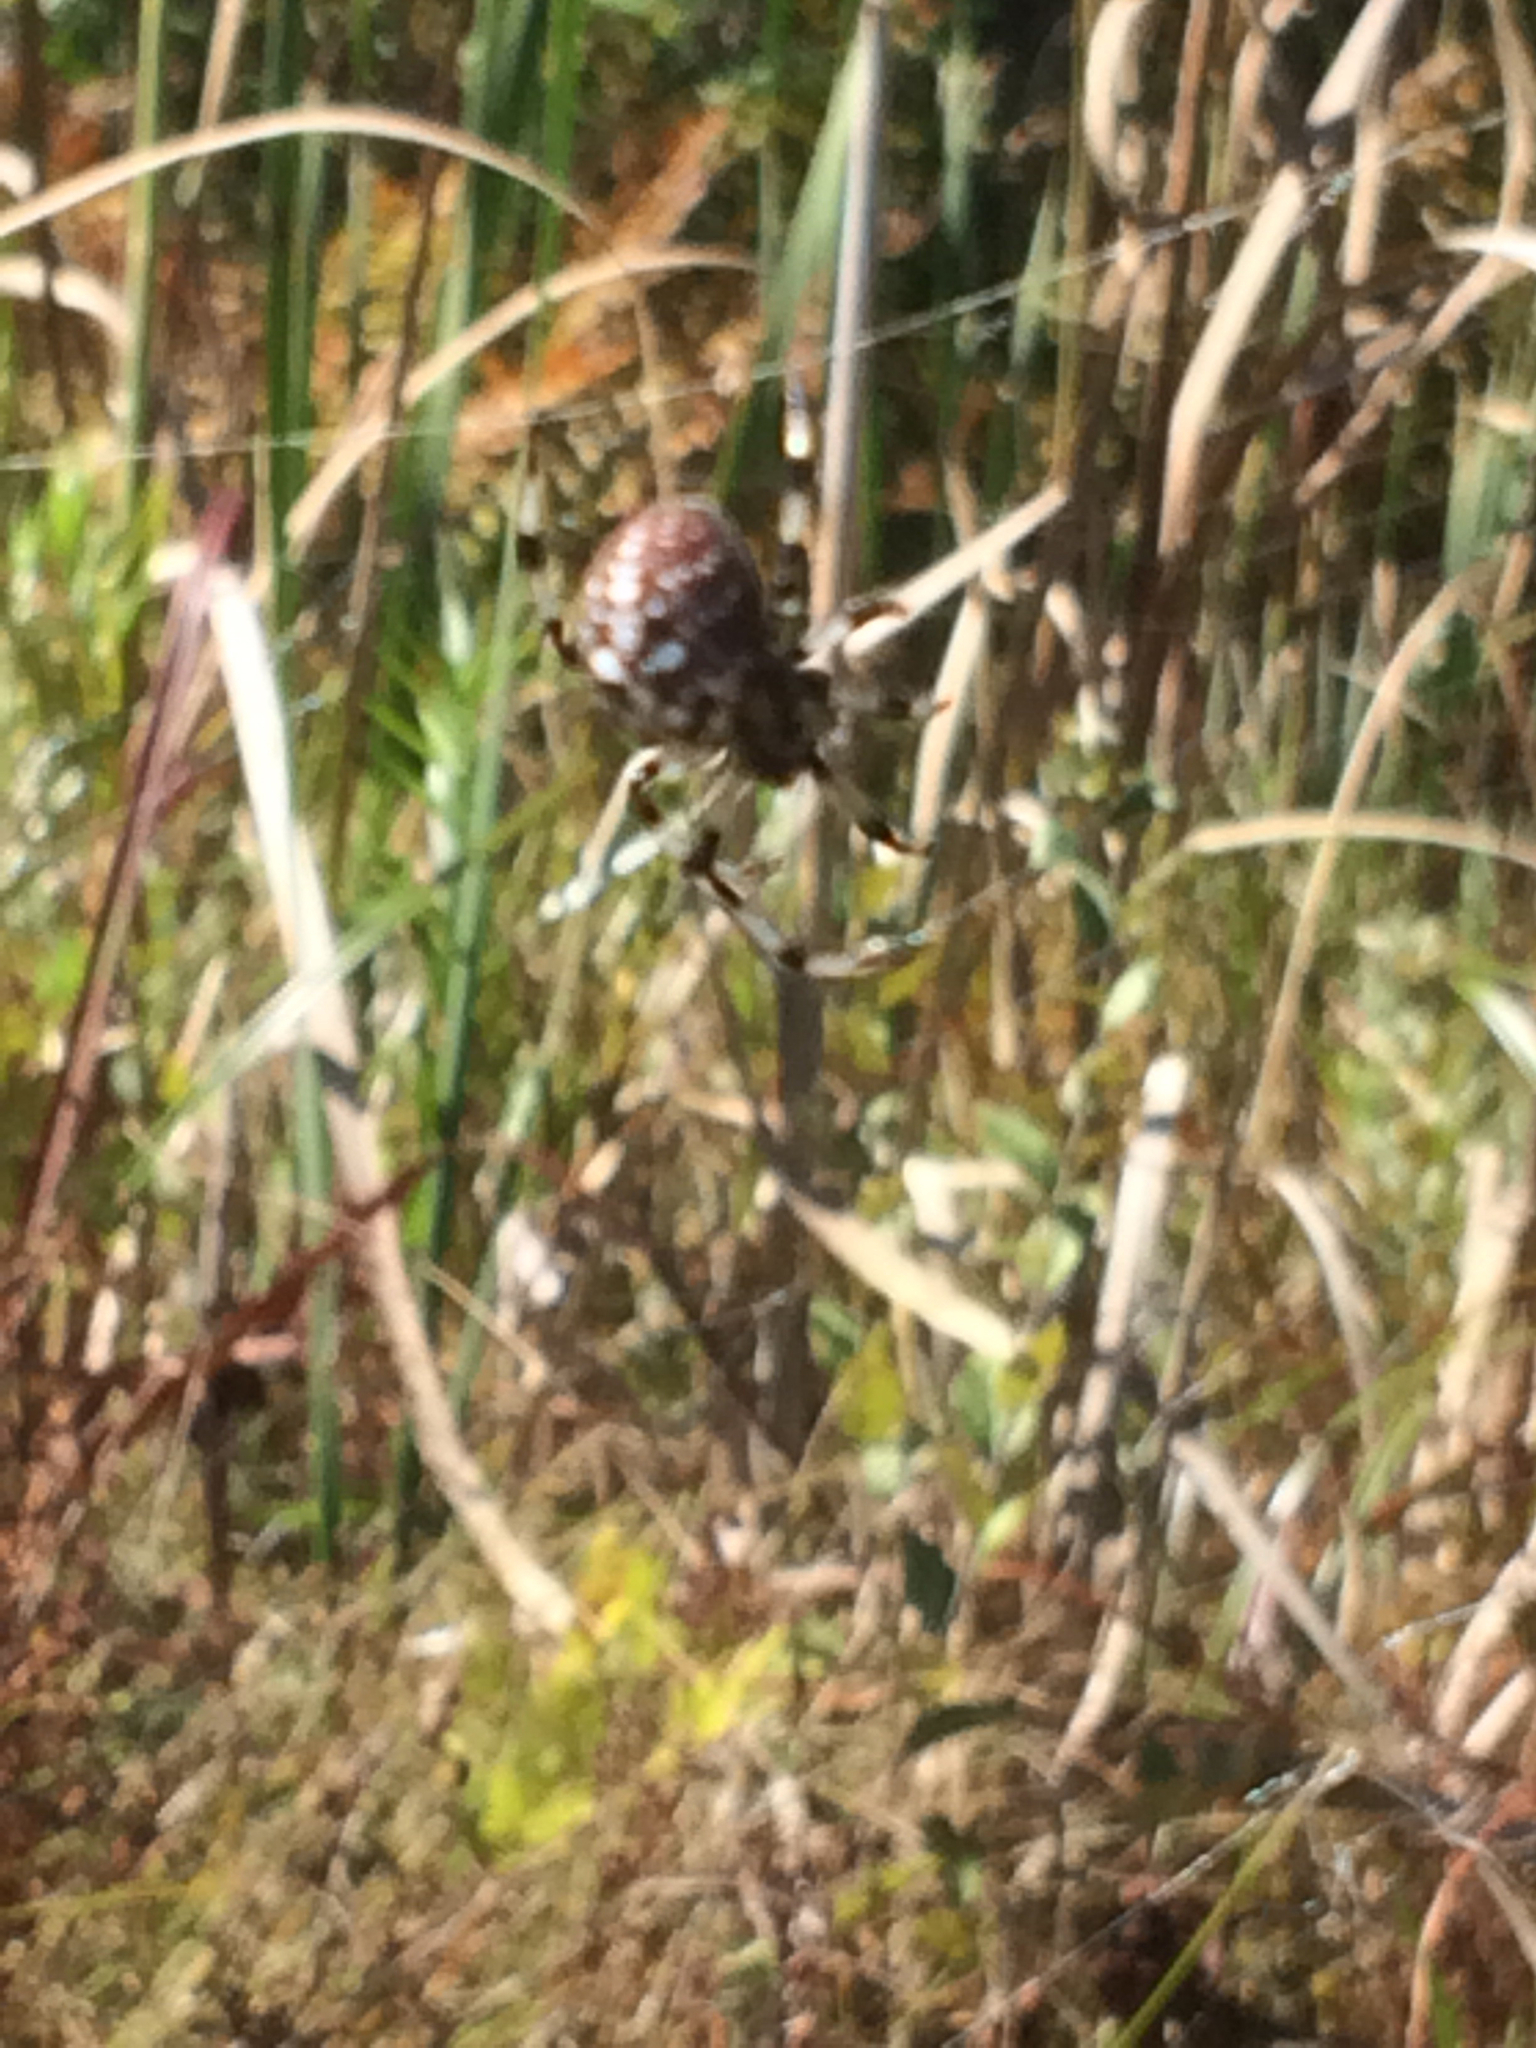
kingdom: Animalia
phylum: Arthropoda
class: Arachnida
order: Araneae
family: Araneidae
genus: Araneus
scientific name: Araneus trifolium
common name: Shamrock orbweaver
